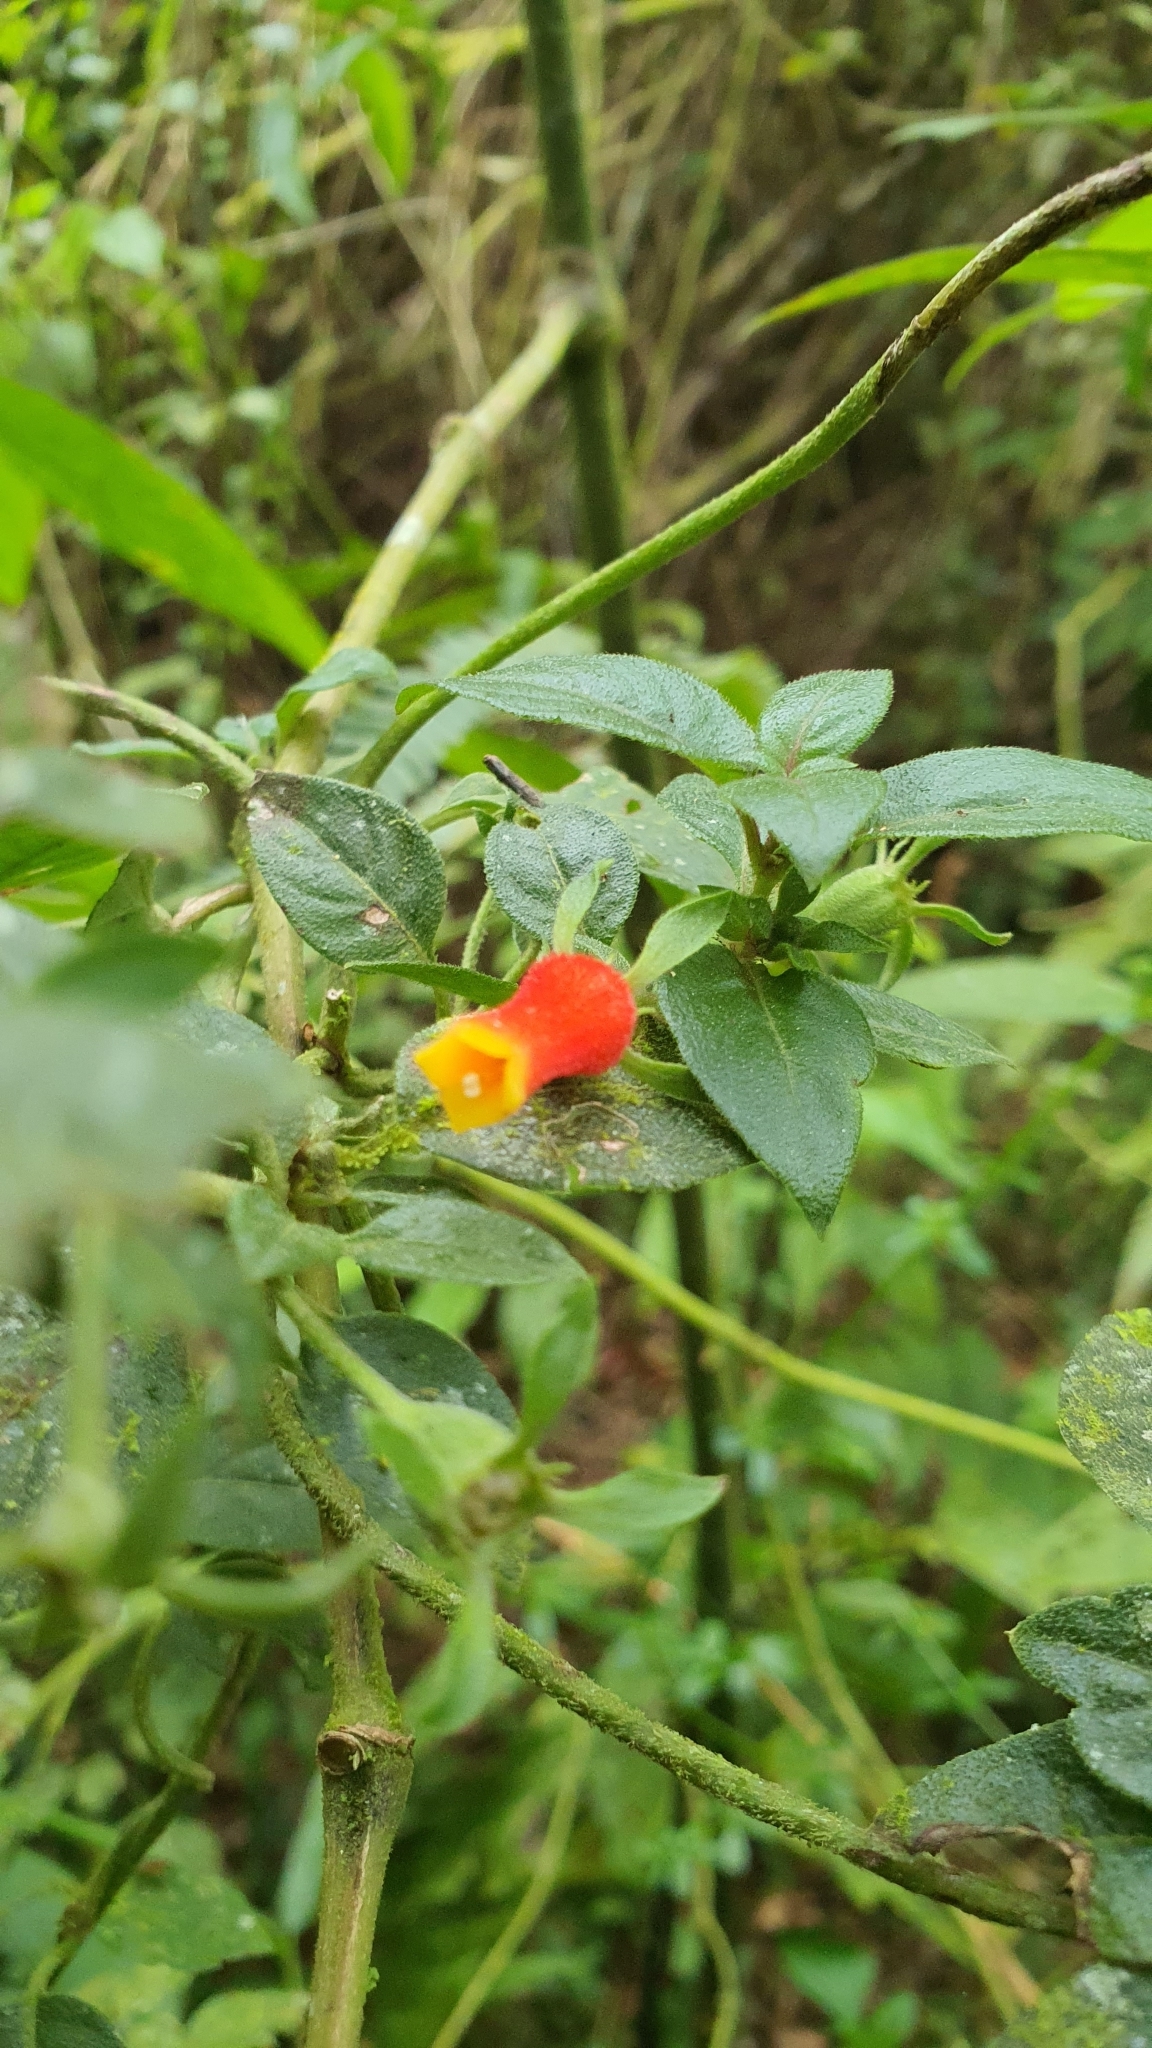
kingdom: Plantae
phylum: Tracheophyta
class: Magnoliopsida
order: Gentianales
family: Rubiaceae
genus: Manettia
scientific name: Manettia paraguariensis
